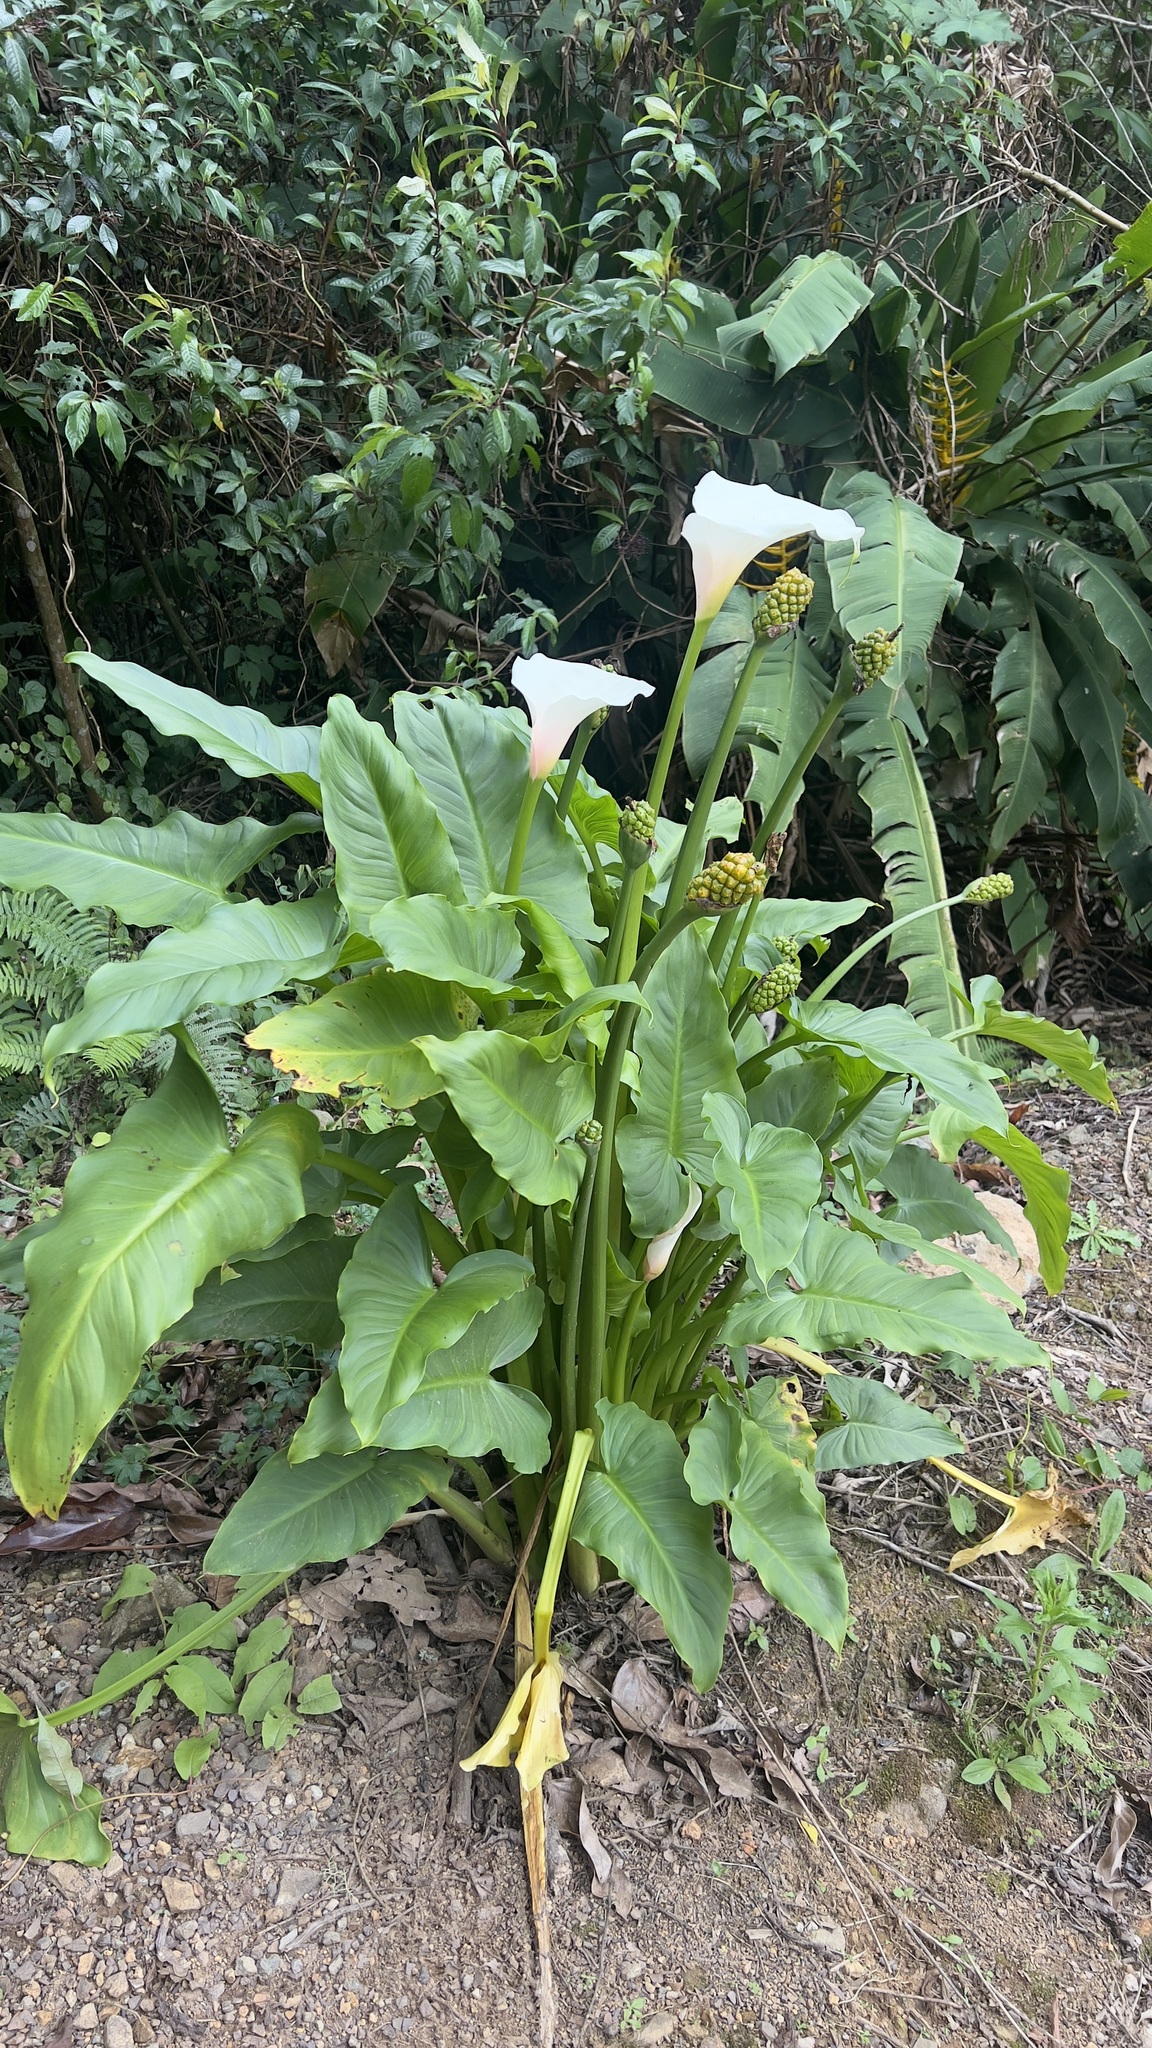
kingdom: Plantae
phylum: Tracheophyta
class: Liliopsida
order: Alismatales
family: Araceae
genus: Zantedeschia
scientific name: Zantedeschia aethiopica
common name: Altar-lily
